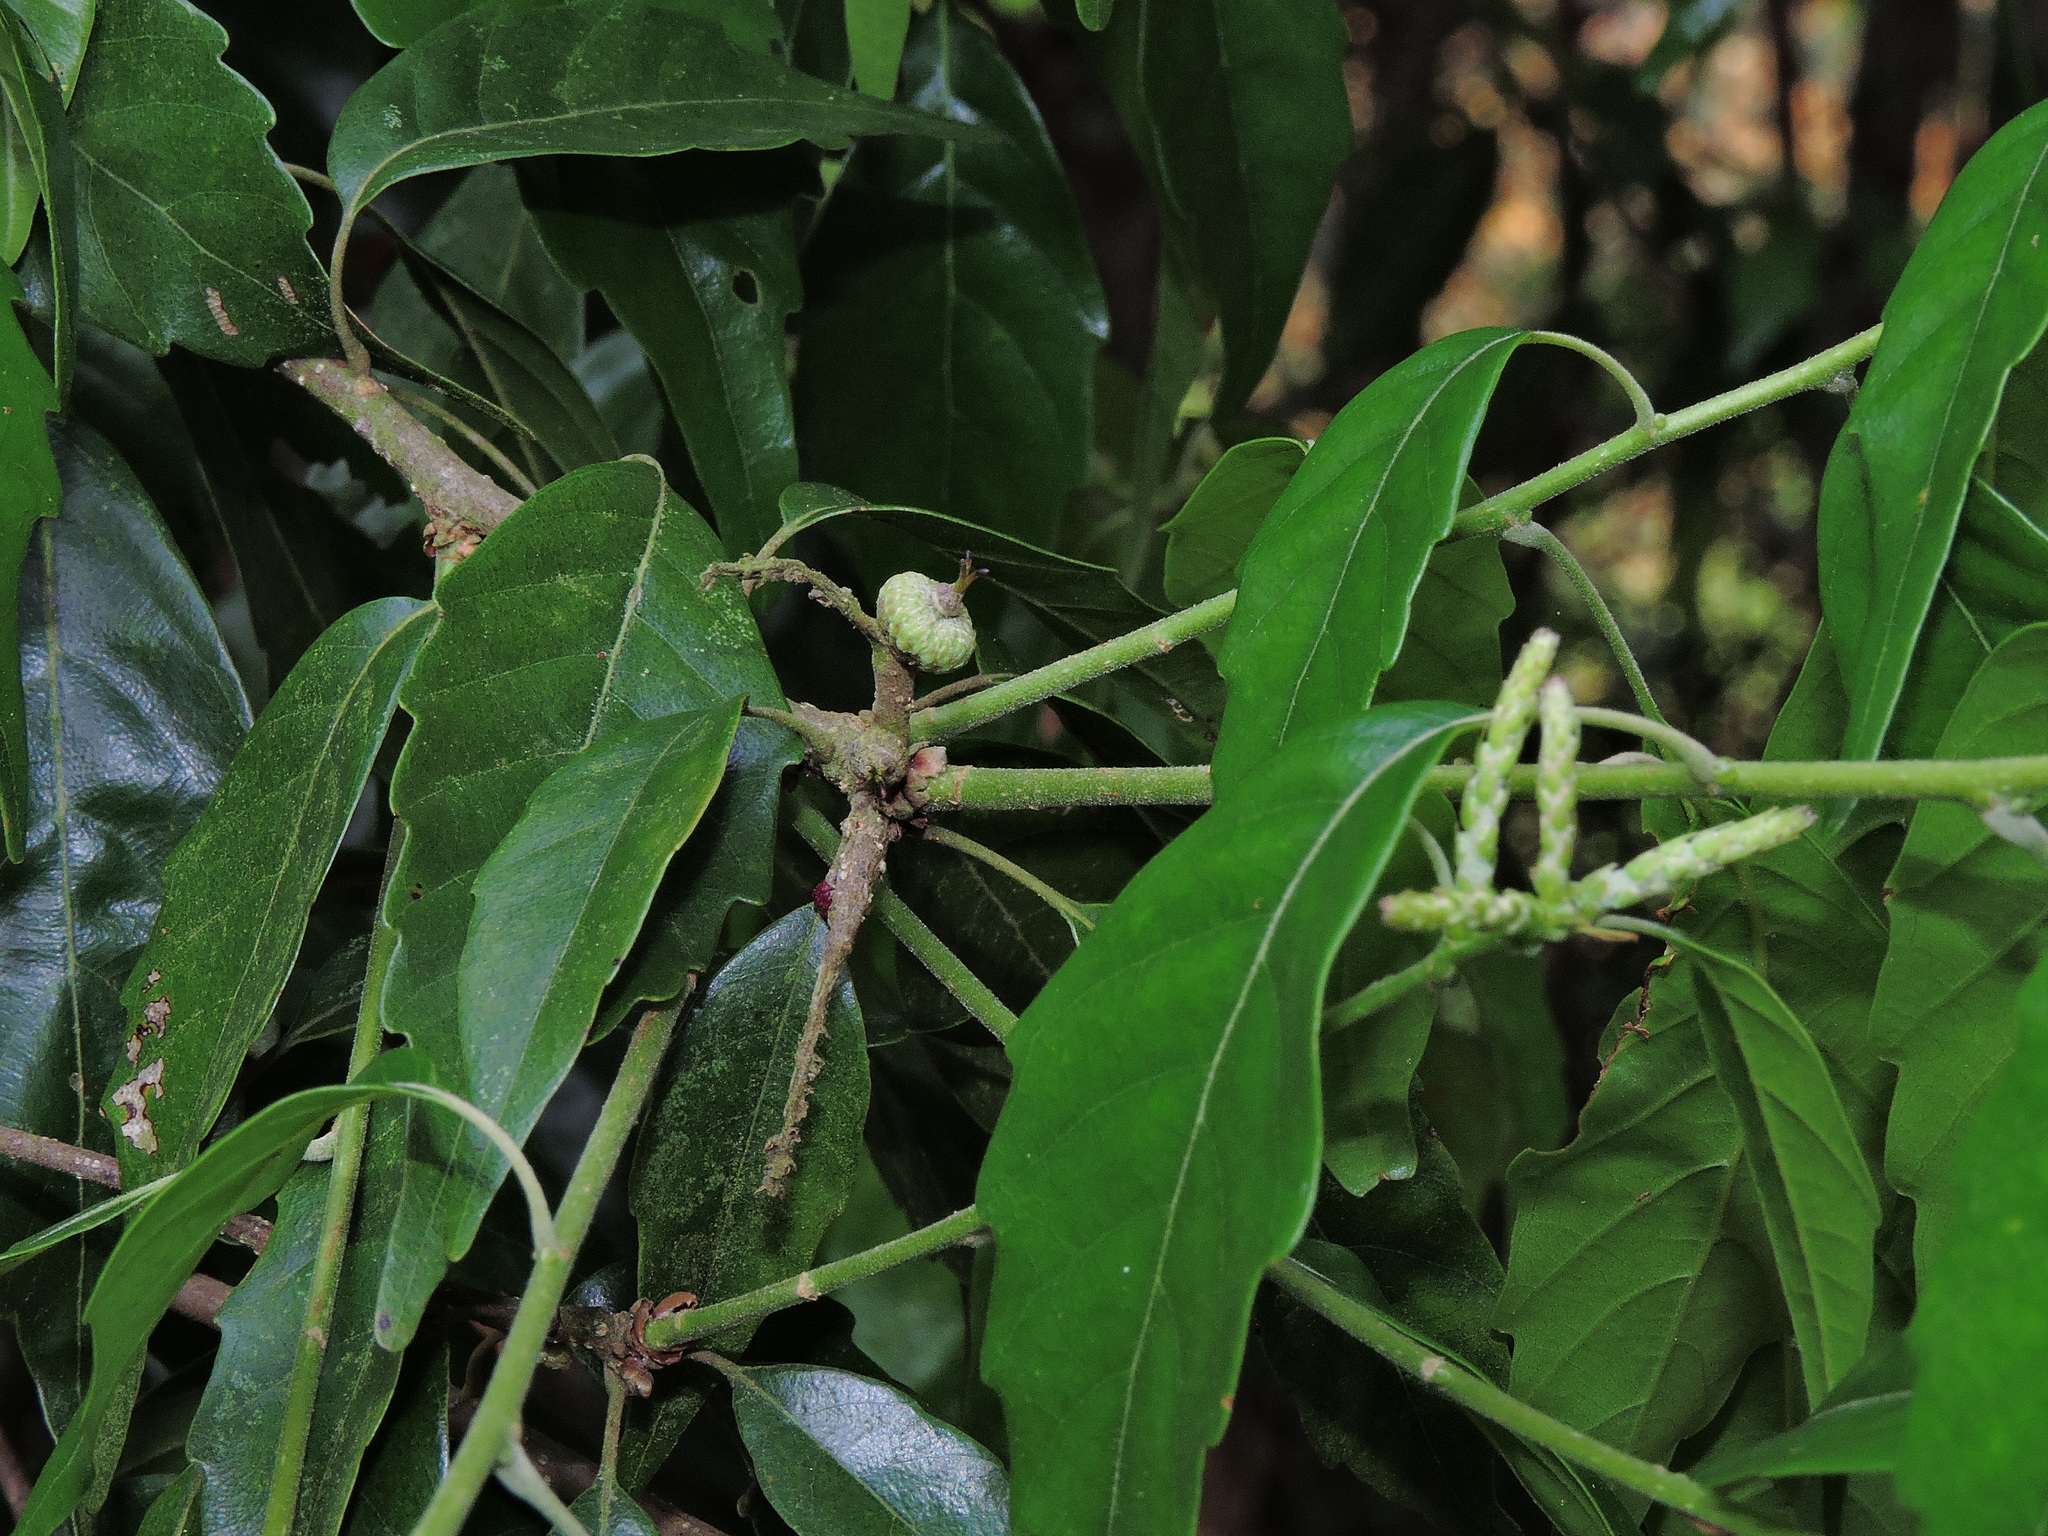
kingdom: Plantae
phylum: Tracheophyta
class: Magnoliopsida
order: Fagales
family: Fagaceae
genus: Lithocarpus
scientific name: Lithocarpus konishii
